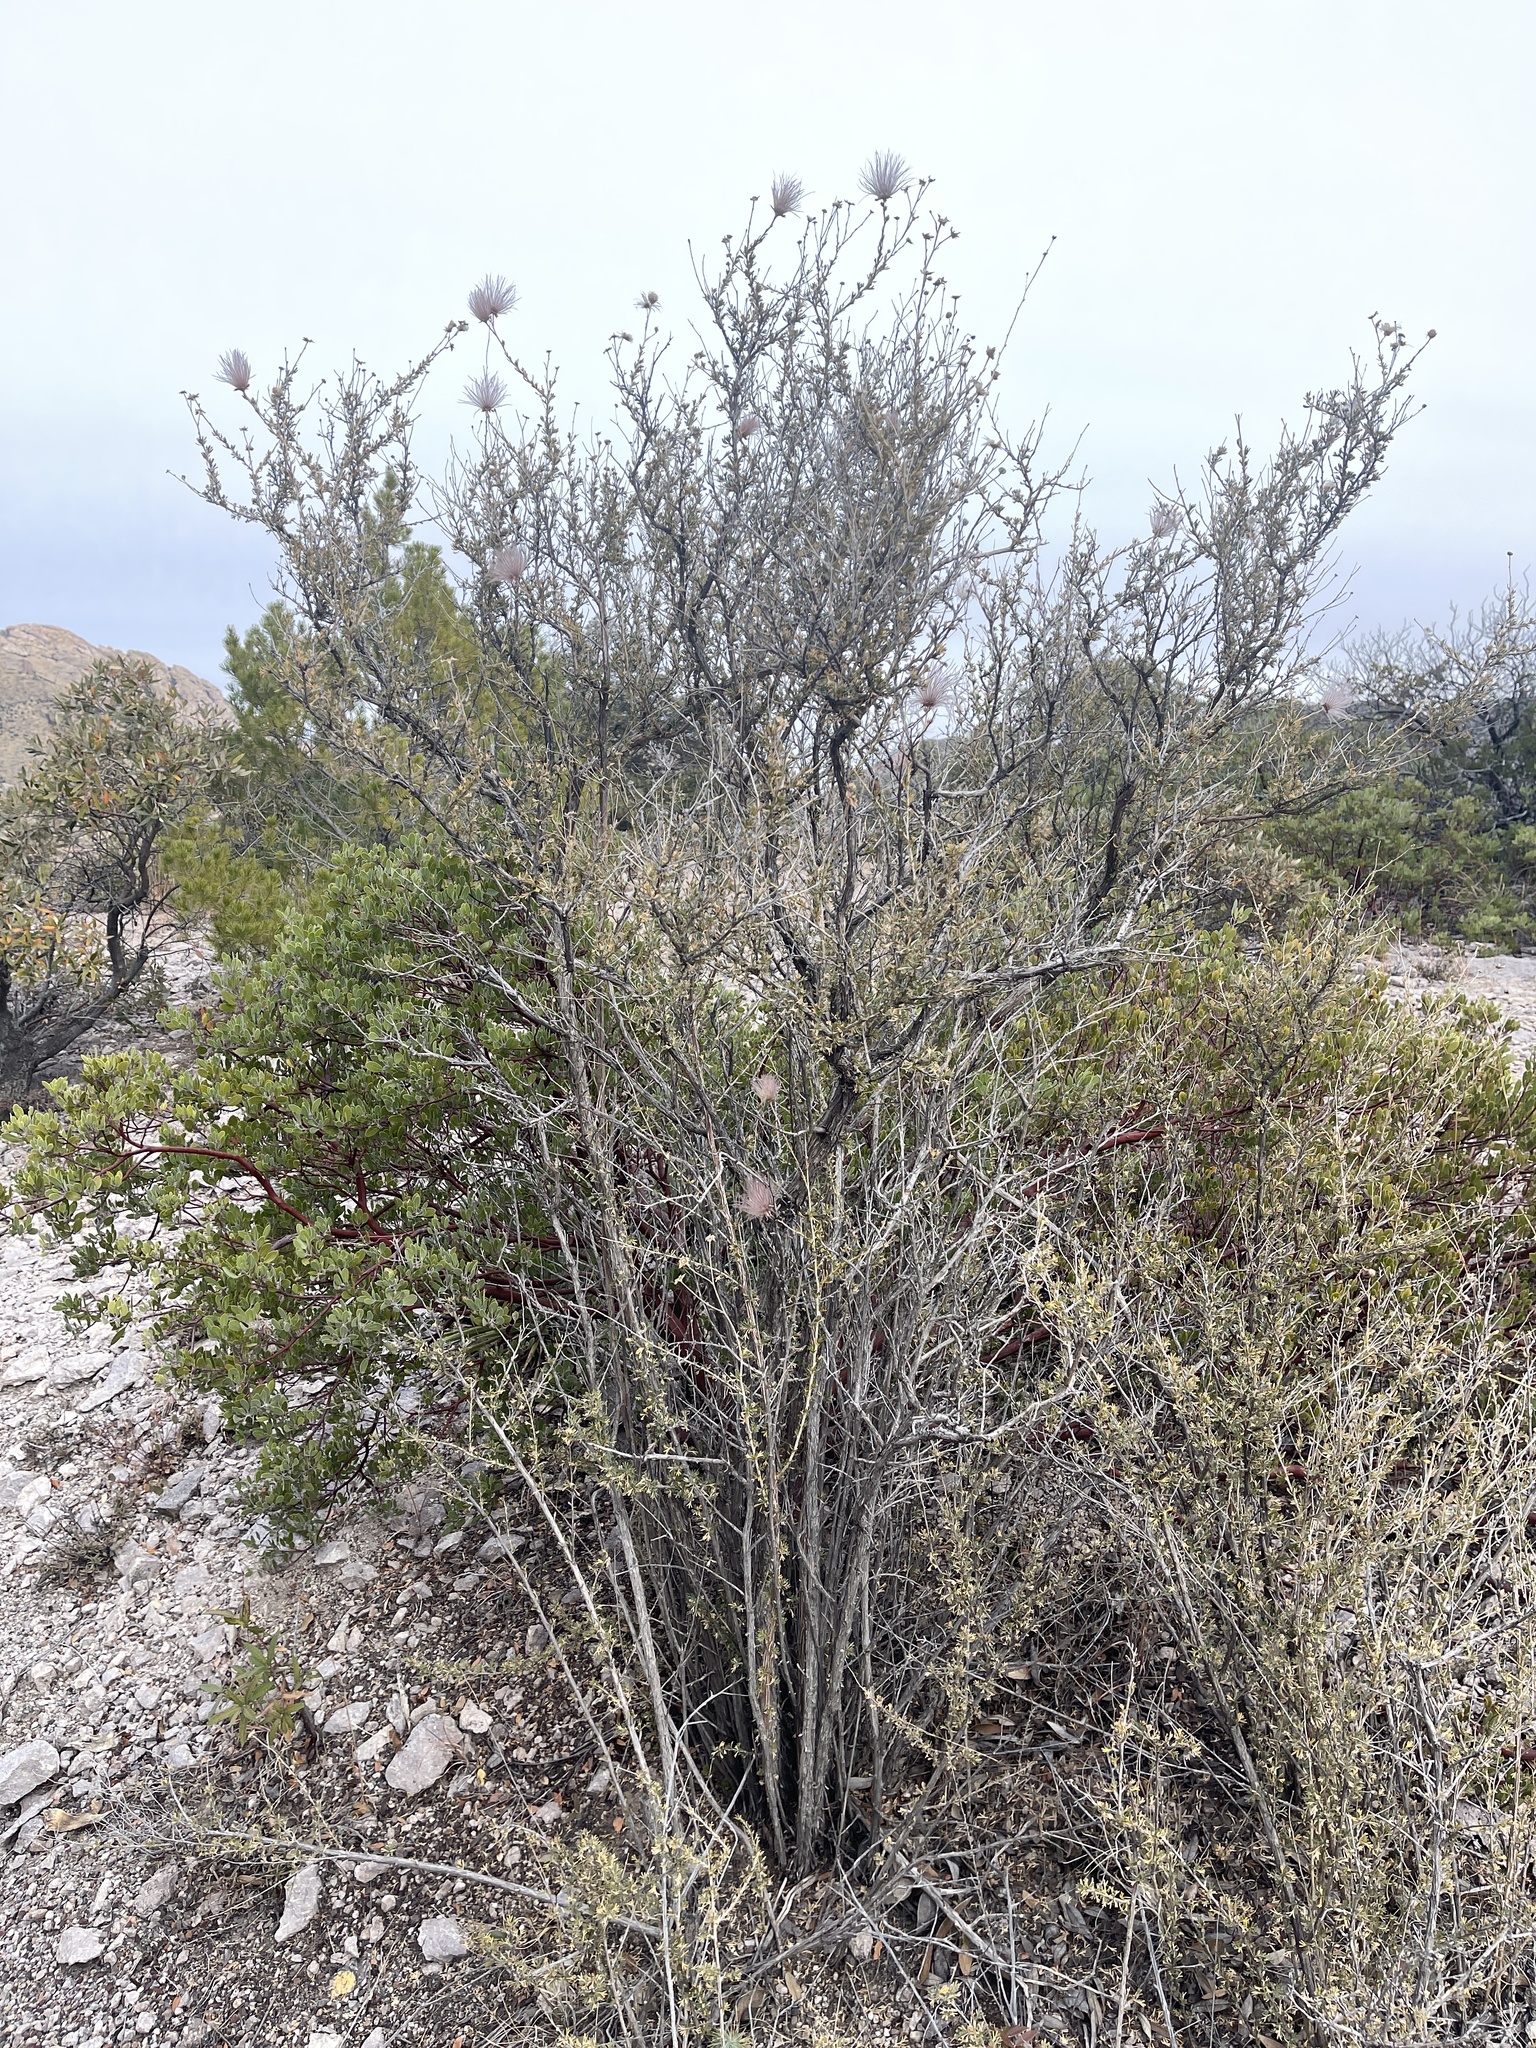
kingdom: Plantae
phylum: Tracheophyta
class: Magnoliopsida
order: Rosales
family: Rosaceae
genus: Fallugia
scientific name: Fallugia paradoxa
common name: Apache-plume
